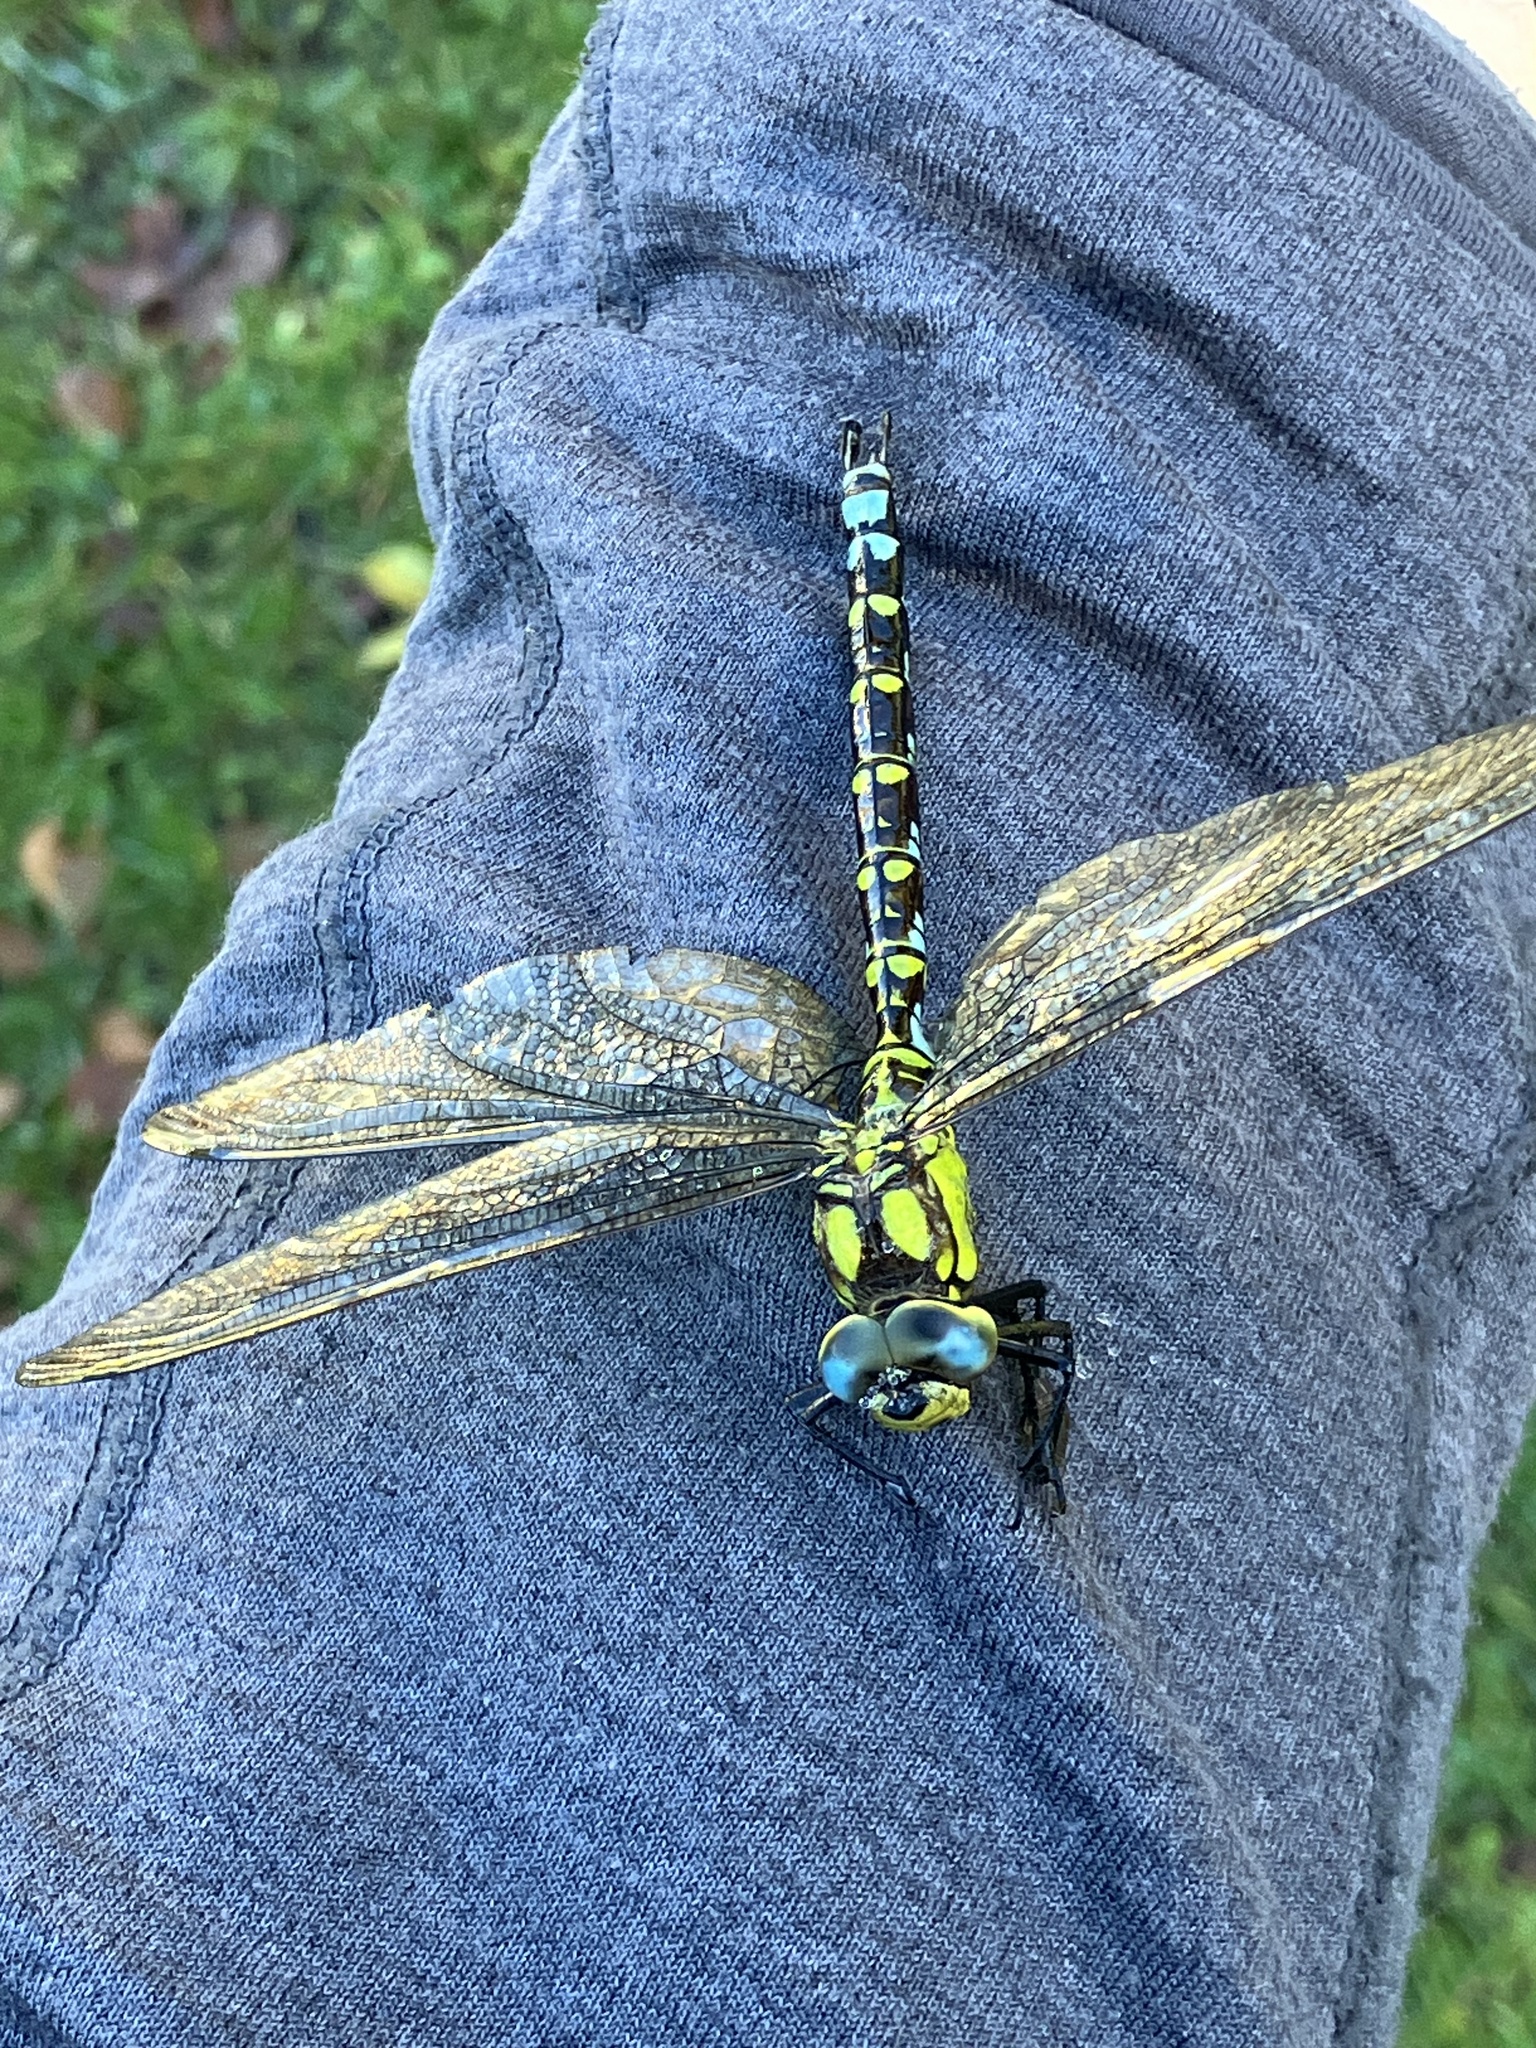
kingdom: Animalia
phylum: Arthropoda
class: Insecta
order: Odonata
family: Aeshnidae
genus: Aeshna
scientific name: Aeshna cyanea
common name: Southern hawker
